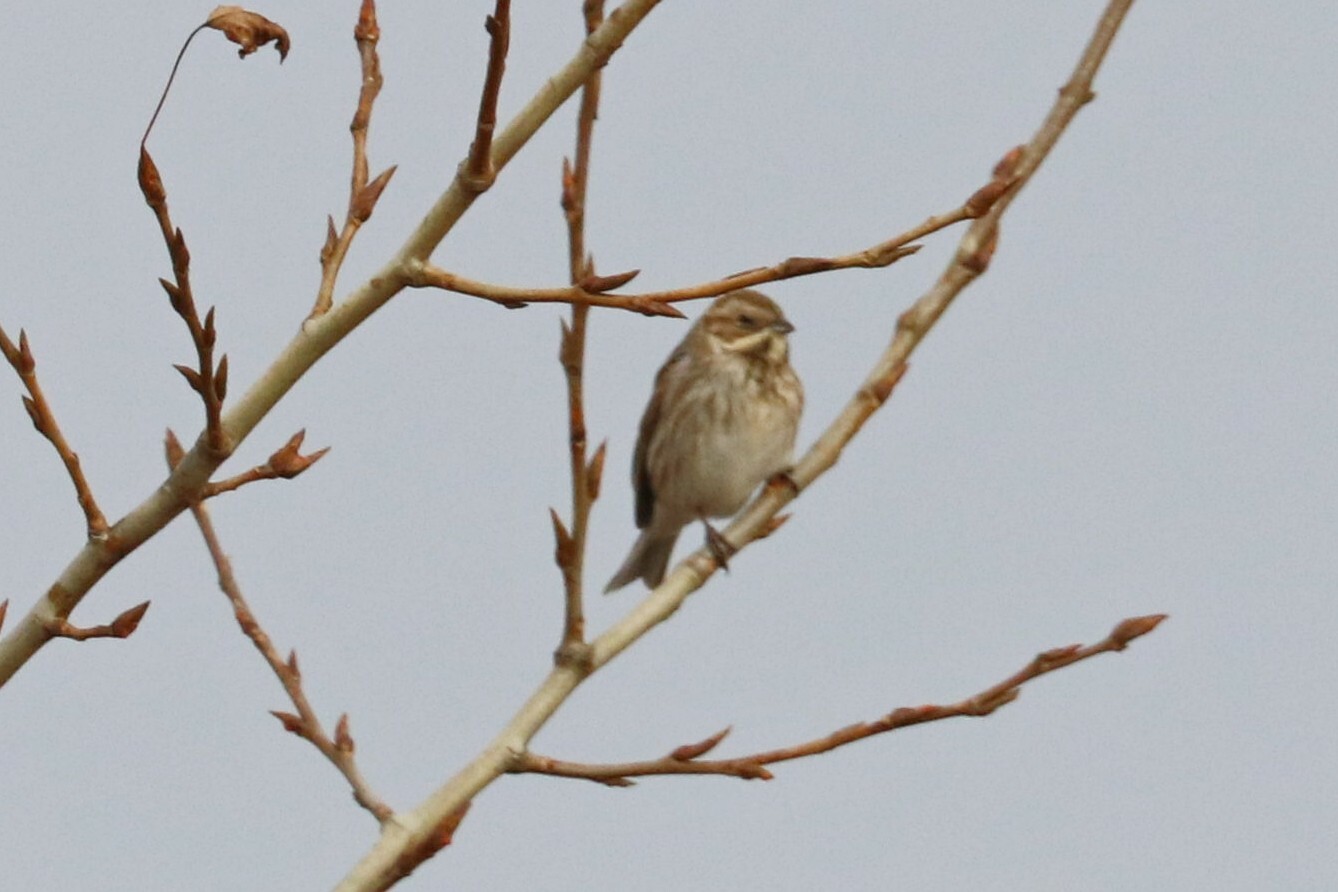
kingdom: Animalia
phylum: Chordata
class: Aves
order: Passeriformes
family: Emberizidae
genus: Emberiza
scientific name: Emberiza schoeniclus
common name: Reed bunting
